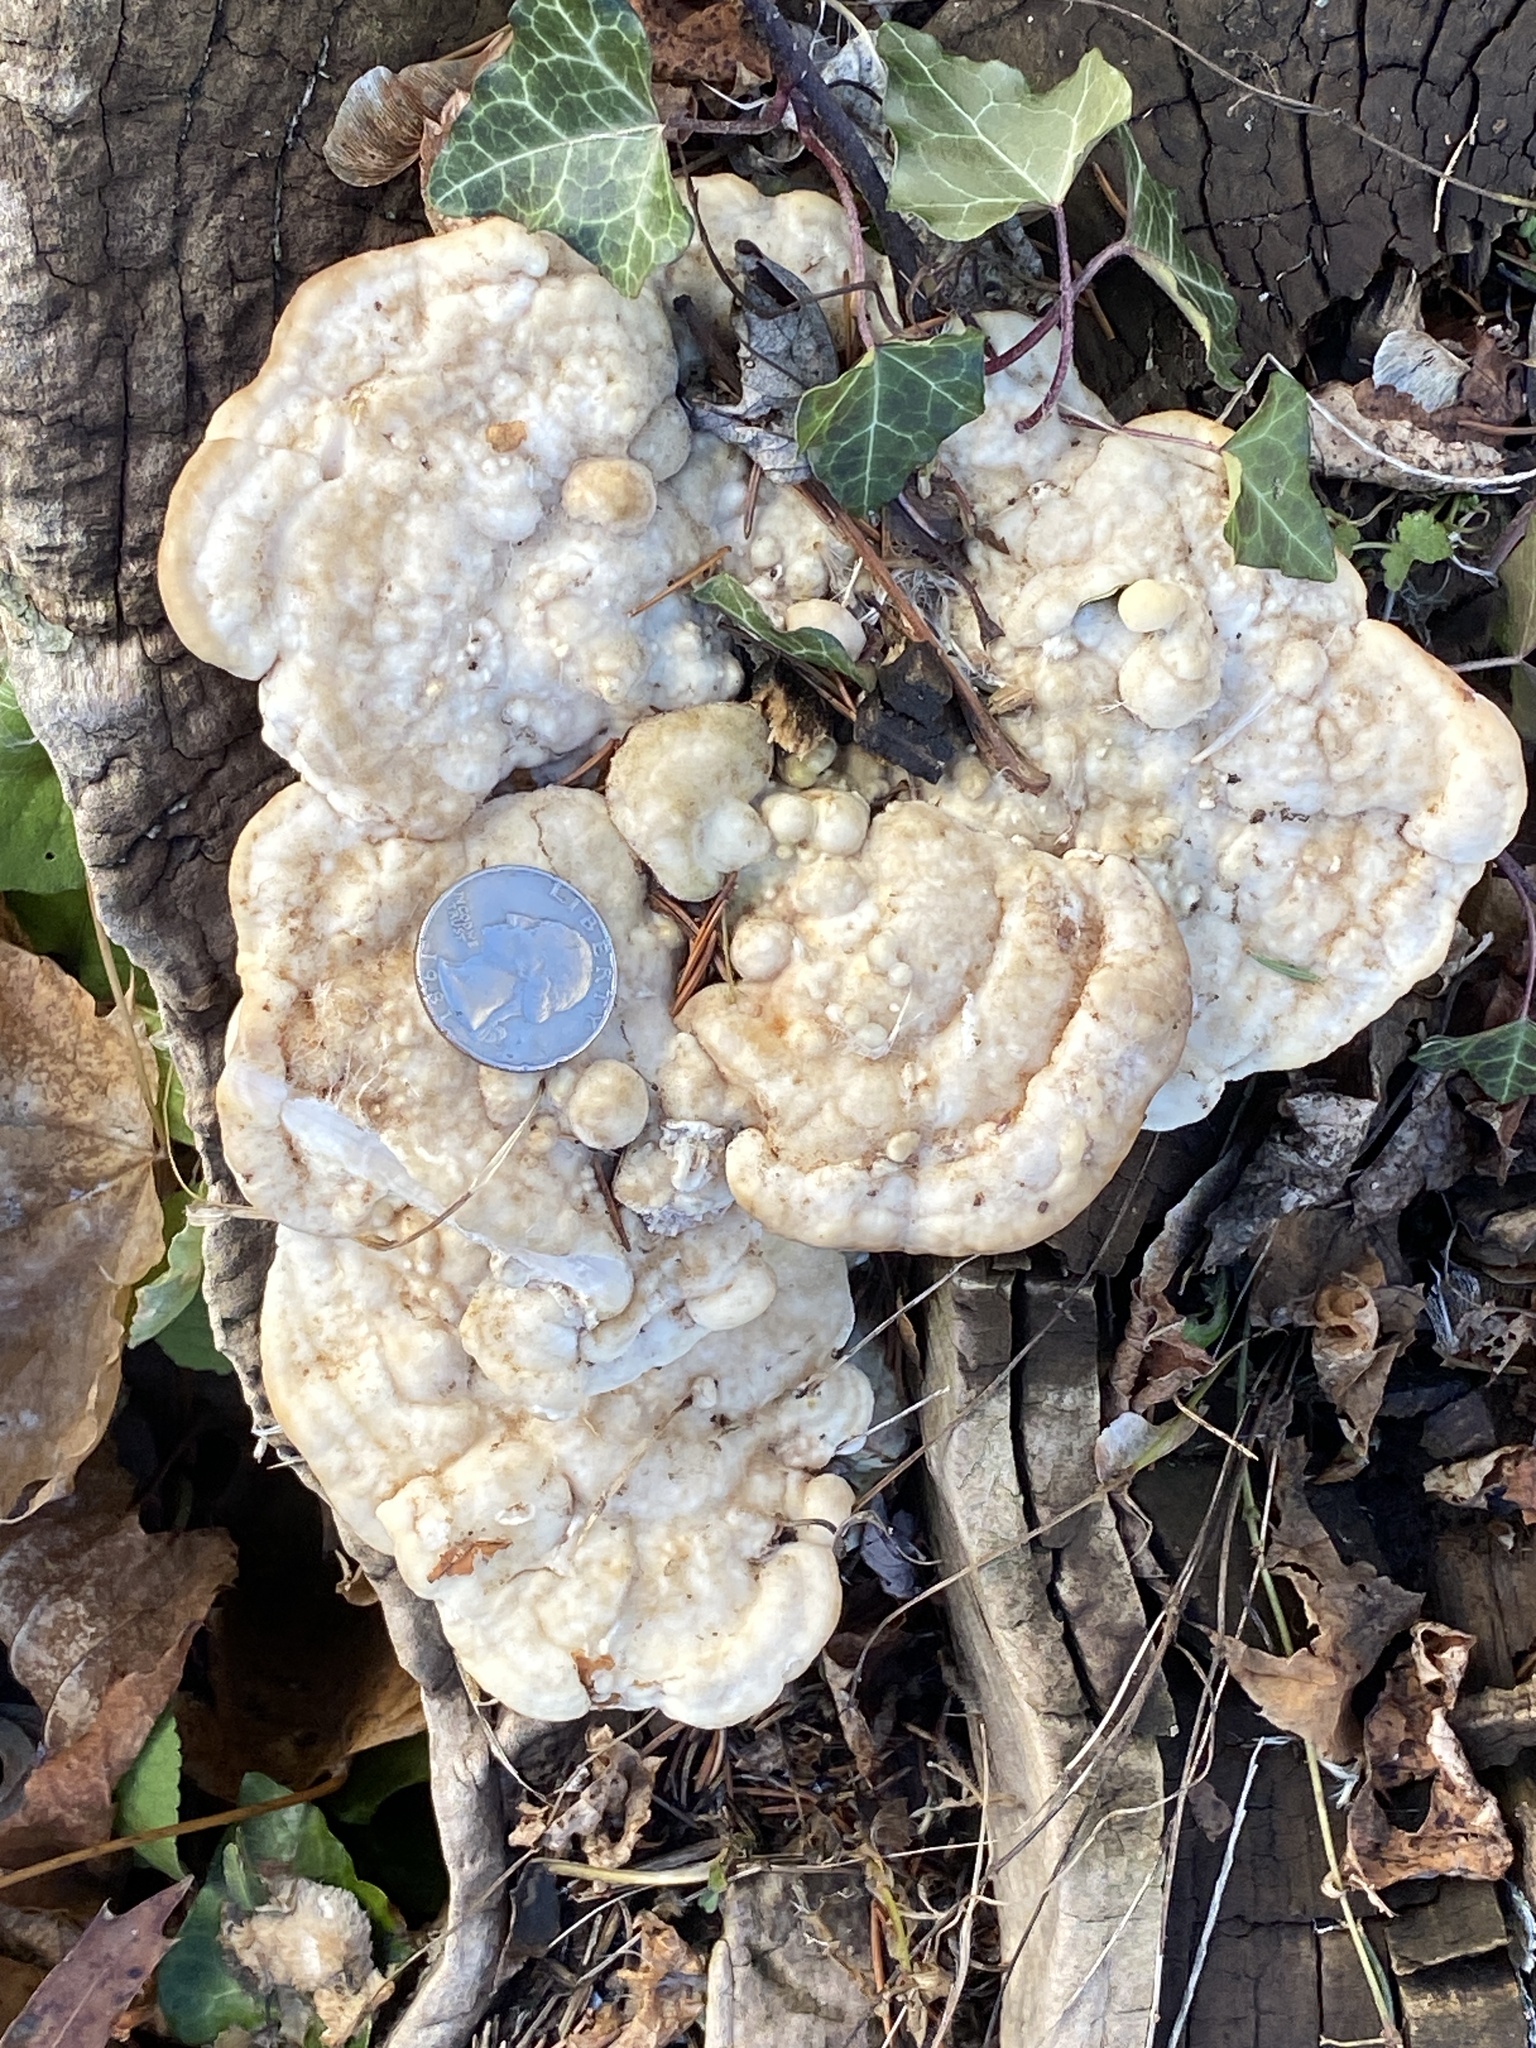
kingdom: Fungi
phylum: Basidiomycota
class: Agaricomycetes
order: Polyporales
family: Polyporaceae
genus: Trametes
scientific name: Trametes gibbosa
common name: Lumpy bracket
